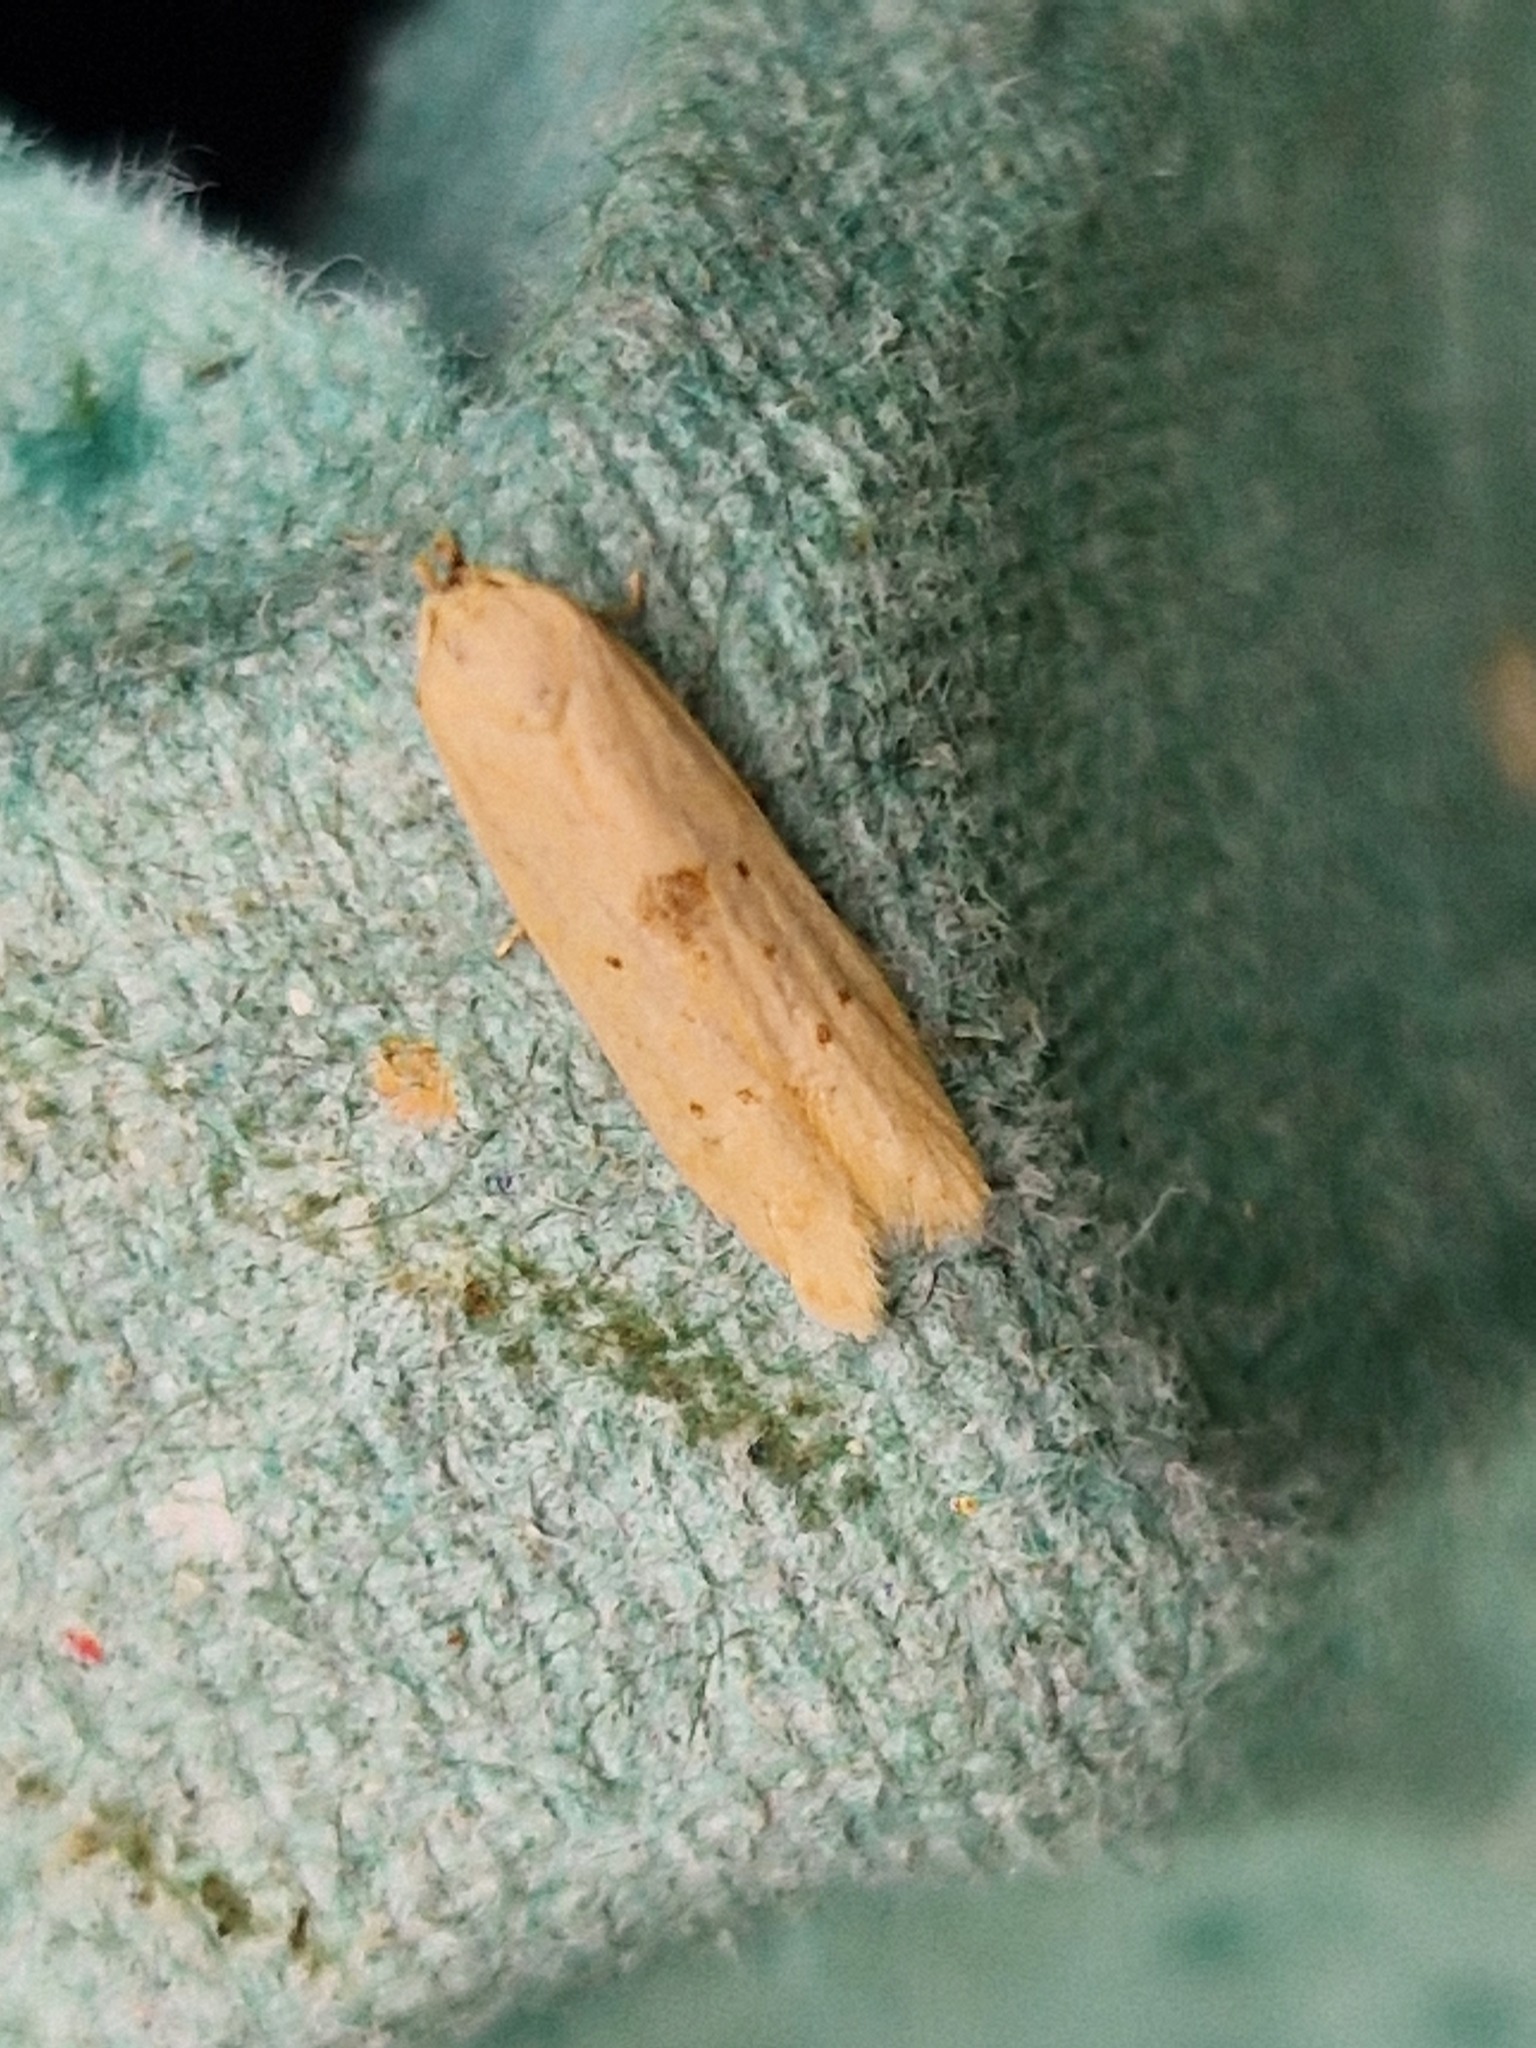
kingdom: Animalia
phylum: Arthropoda
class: Insecta
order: Lepidoptera
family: Blastobasidae
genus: Blastobasis
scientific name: Blastobasis lacticolella
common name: London dowd
